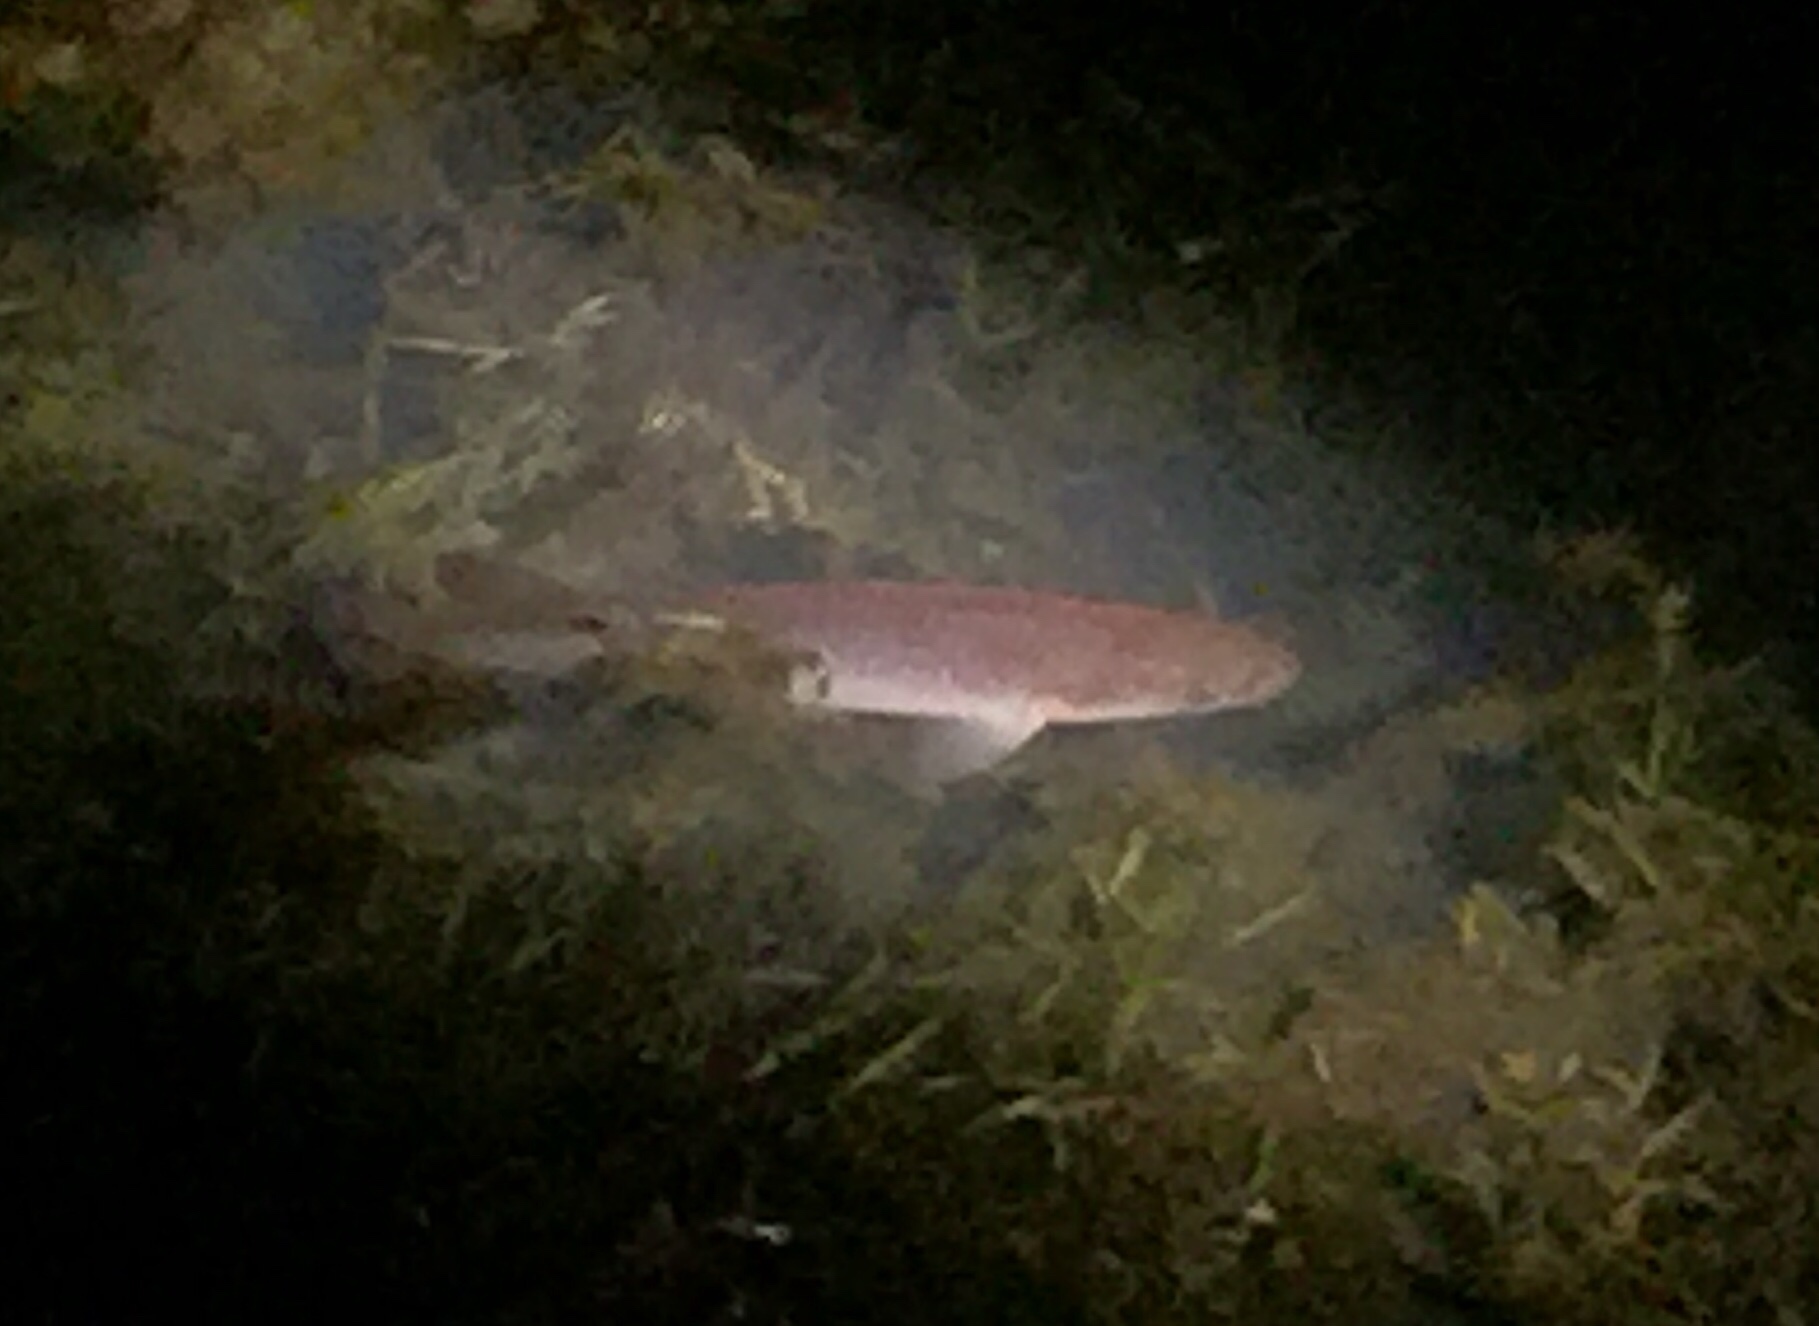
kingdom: Animalia
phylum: Chordata
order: Osmeriformes
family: Galaxiidae
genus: Galaxias
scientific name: Galaxias argenteus
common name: Giant kokopu
